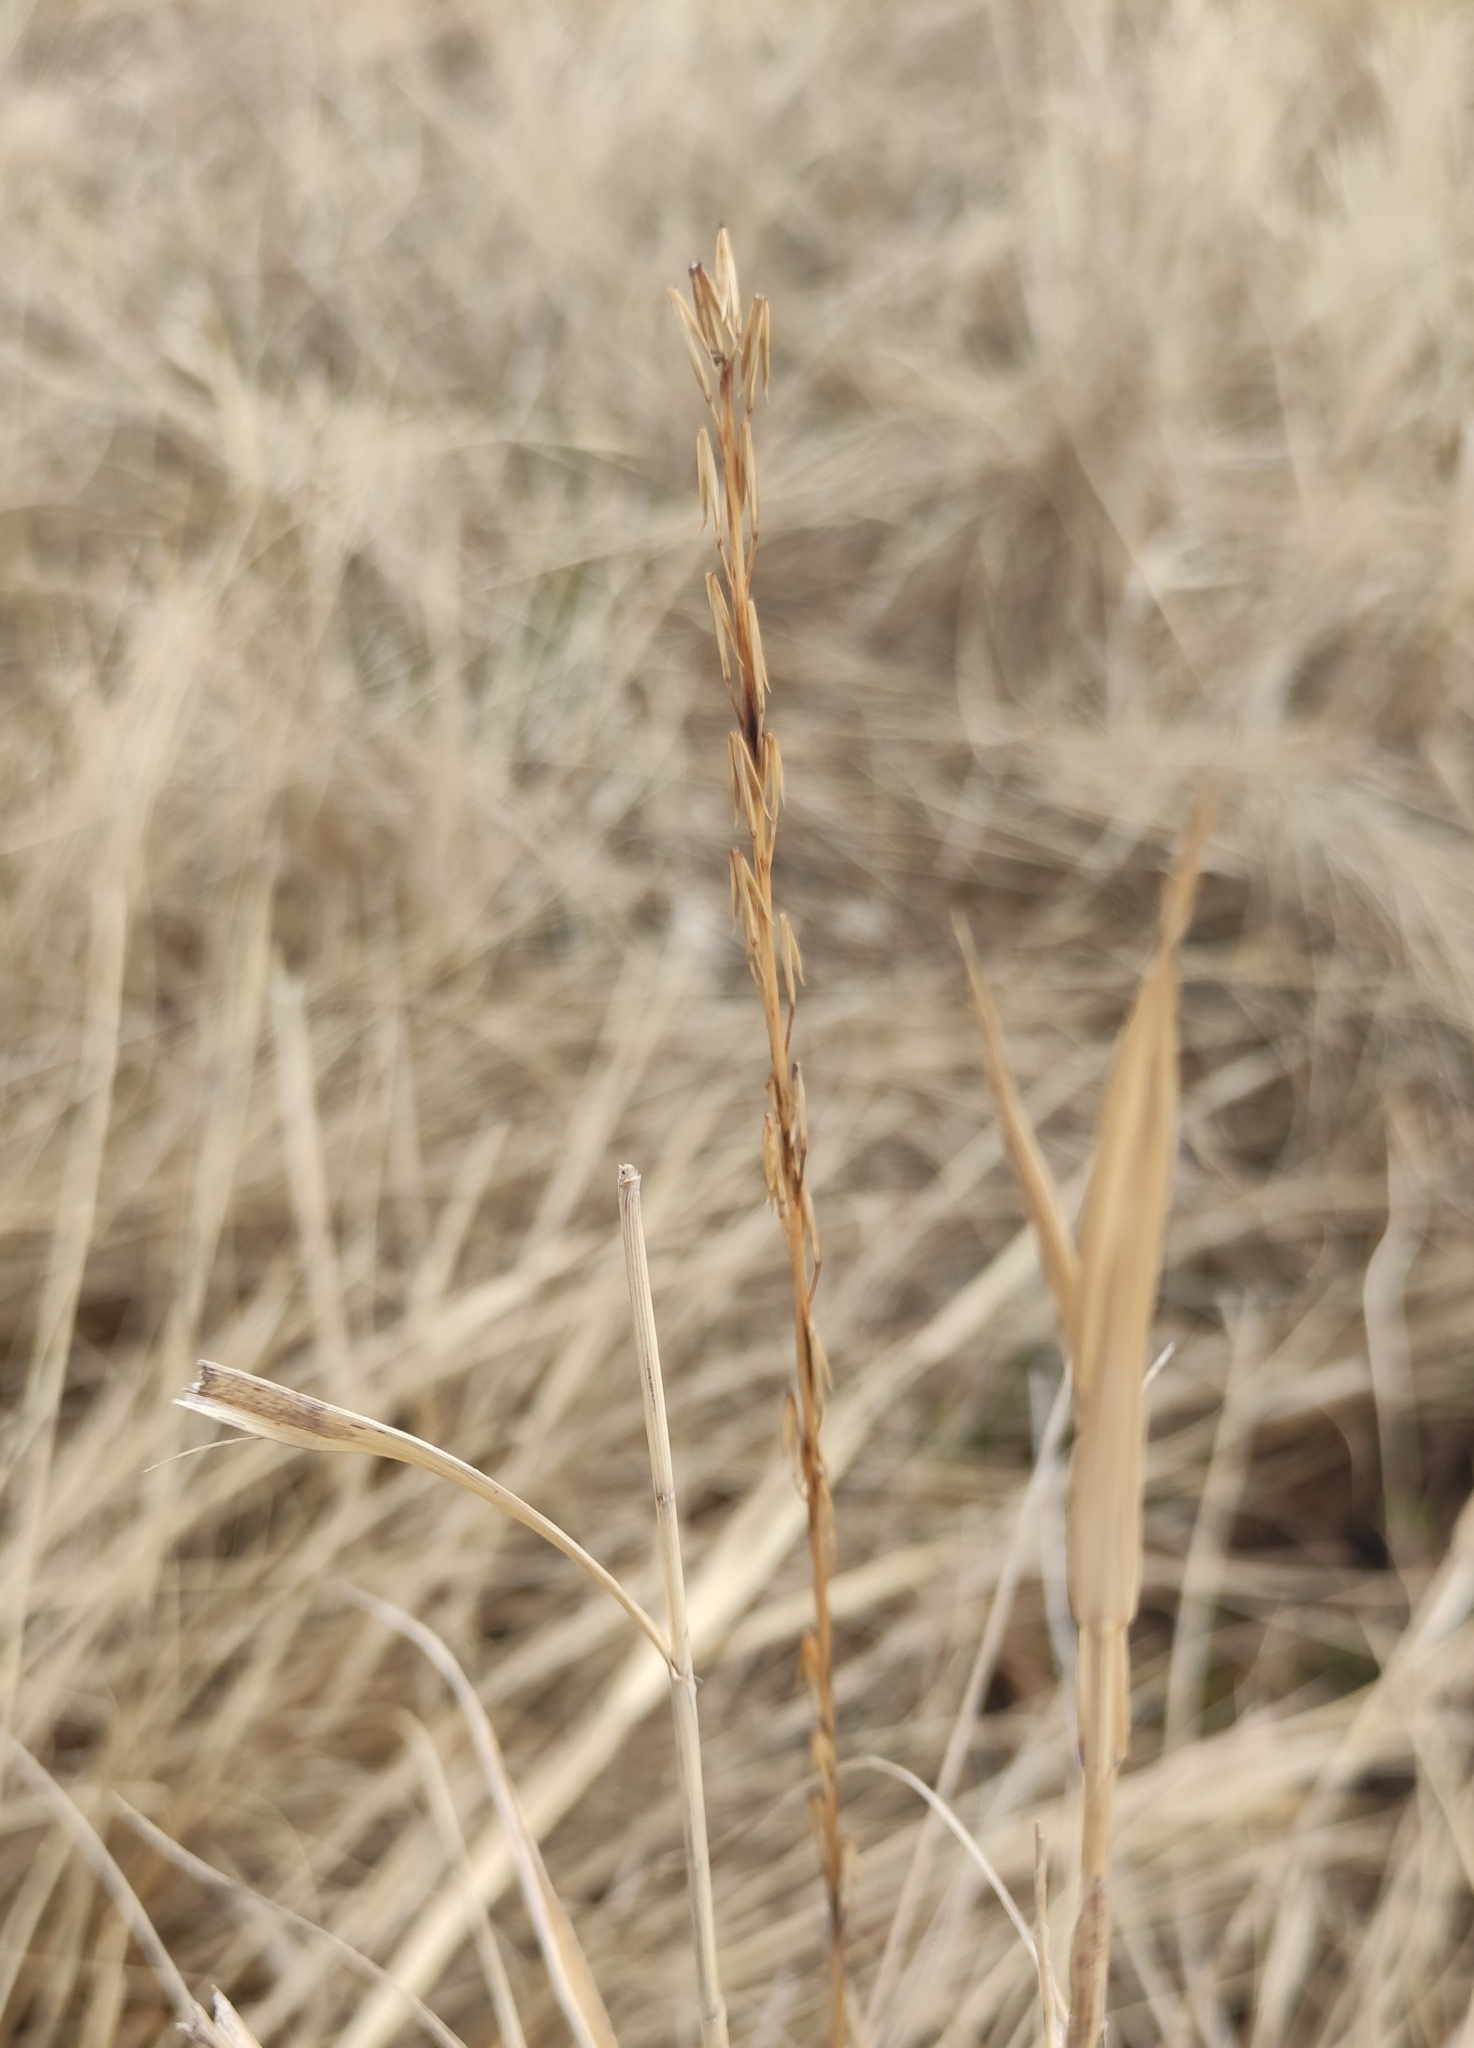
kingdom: Plantae
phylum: Tracheophyta
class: Liliopsida
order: Alismatales
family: Juncaginaceae
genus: Triglochin
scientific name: Triglochin palustris
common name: Marsh arrowgrass
